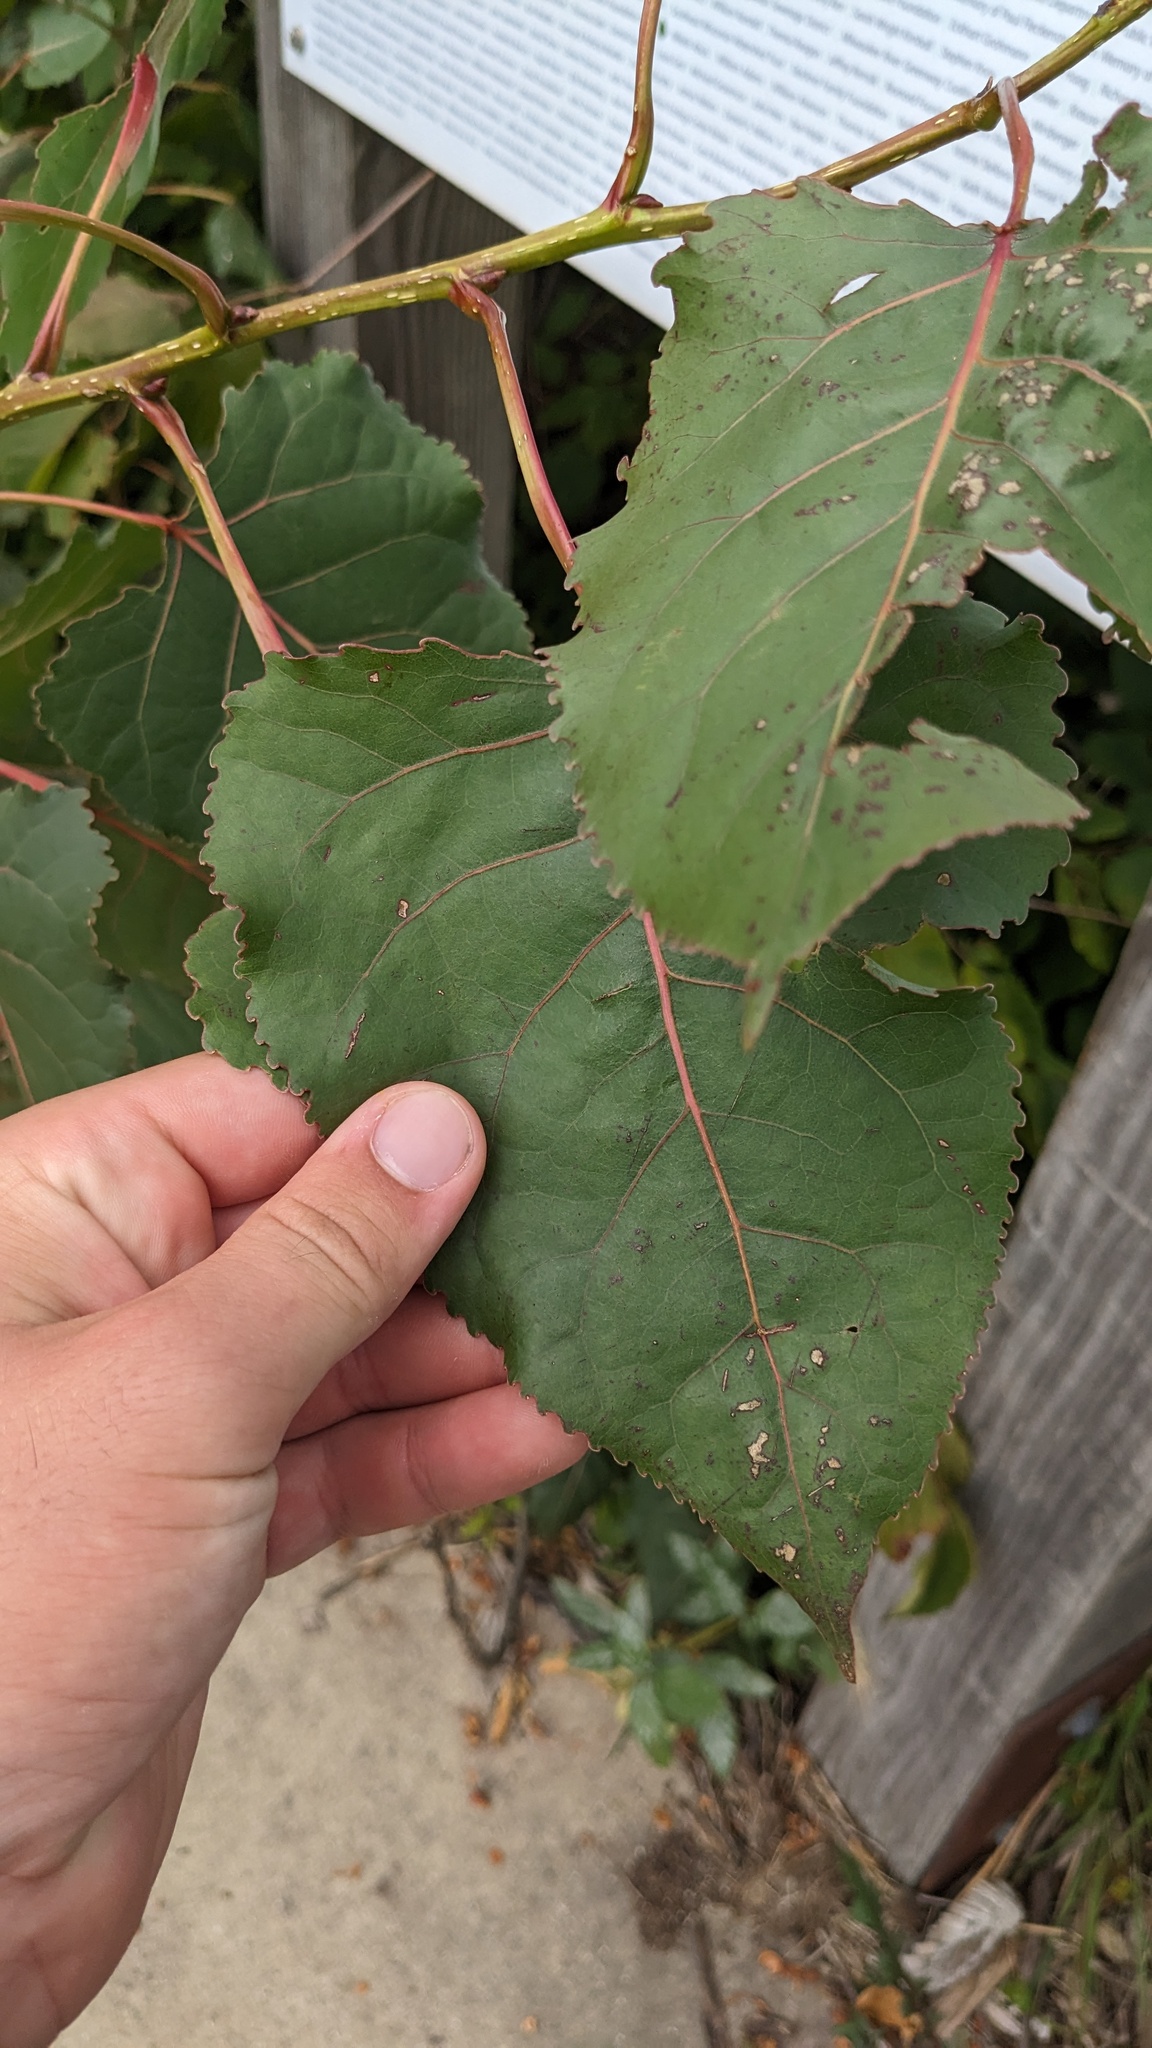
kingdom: Plantae
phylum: Tracheophyta
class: Magnoliopsida
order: Malpighiales
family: Salicaceae
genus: Populus
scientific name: Populus deltoides
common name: Eastern cottonwood
